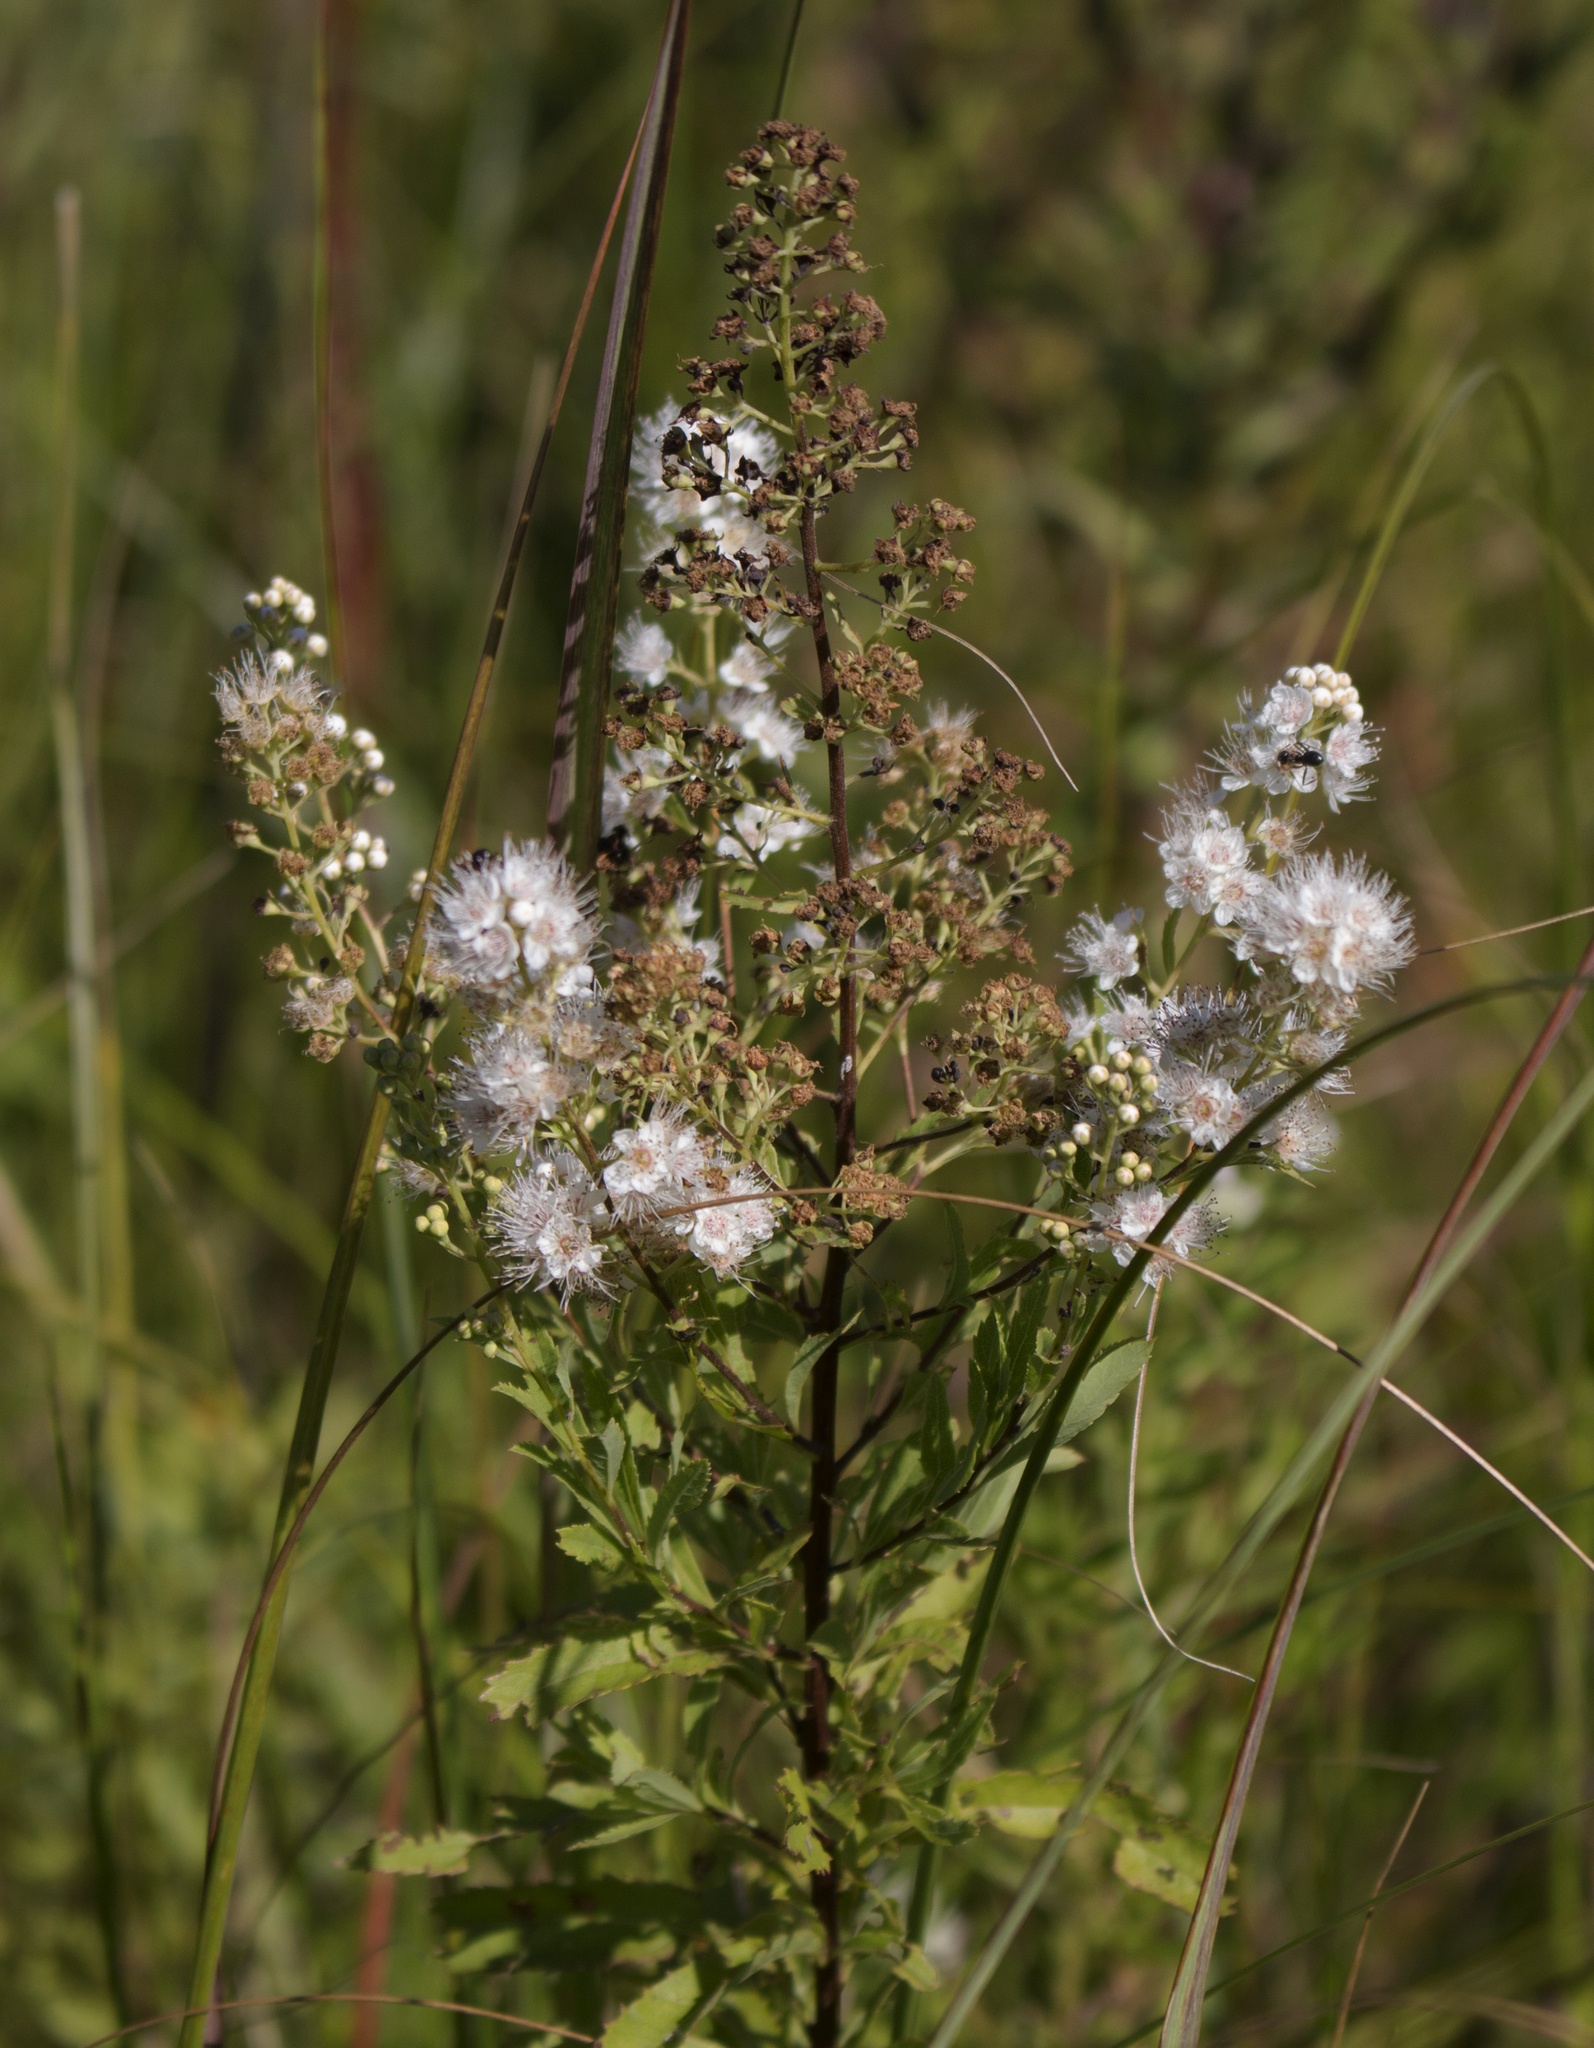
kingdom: Plantae
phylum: Tracheophyta
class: Magnoliopsida
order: Rosales
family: Rosaceae
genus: Spiraea
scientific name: Spiraea alba
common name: Pale bridewort
